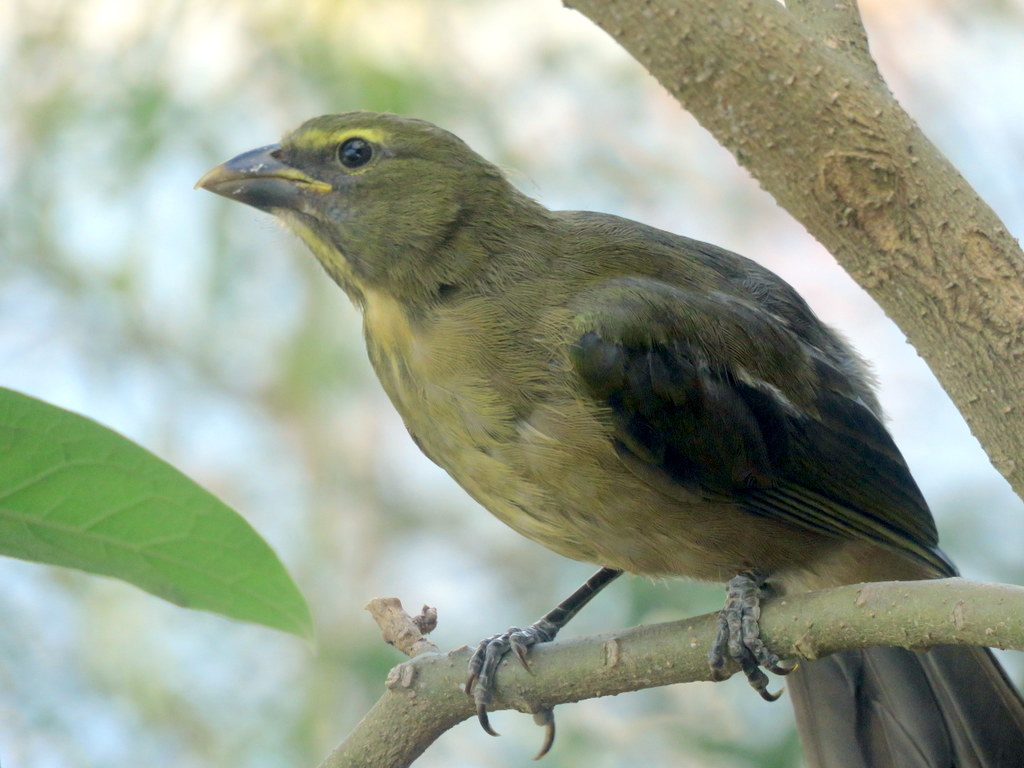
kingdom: Animalia
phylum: Chordata
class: Aves
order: Passeriformes
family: Thraupidae
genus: Saltator
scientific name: Saltator coerulescens
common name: Grayish saltator
